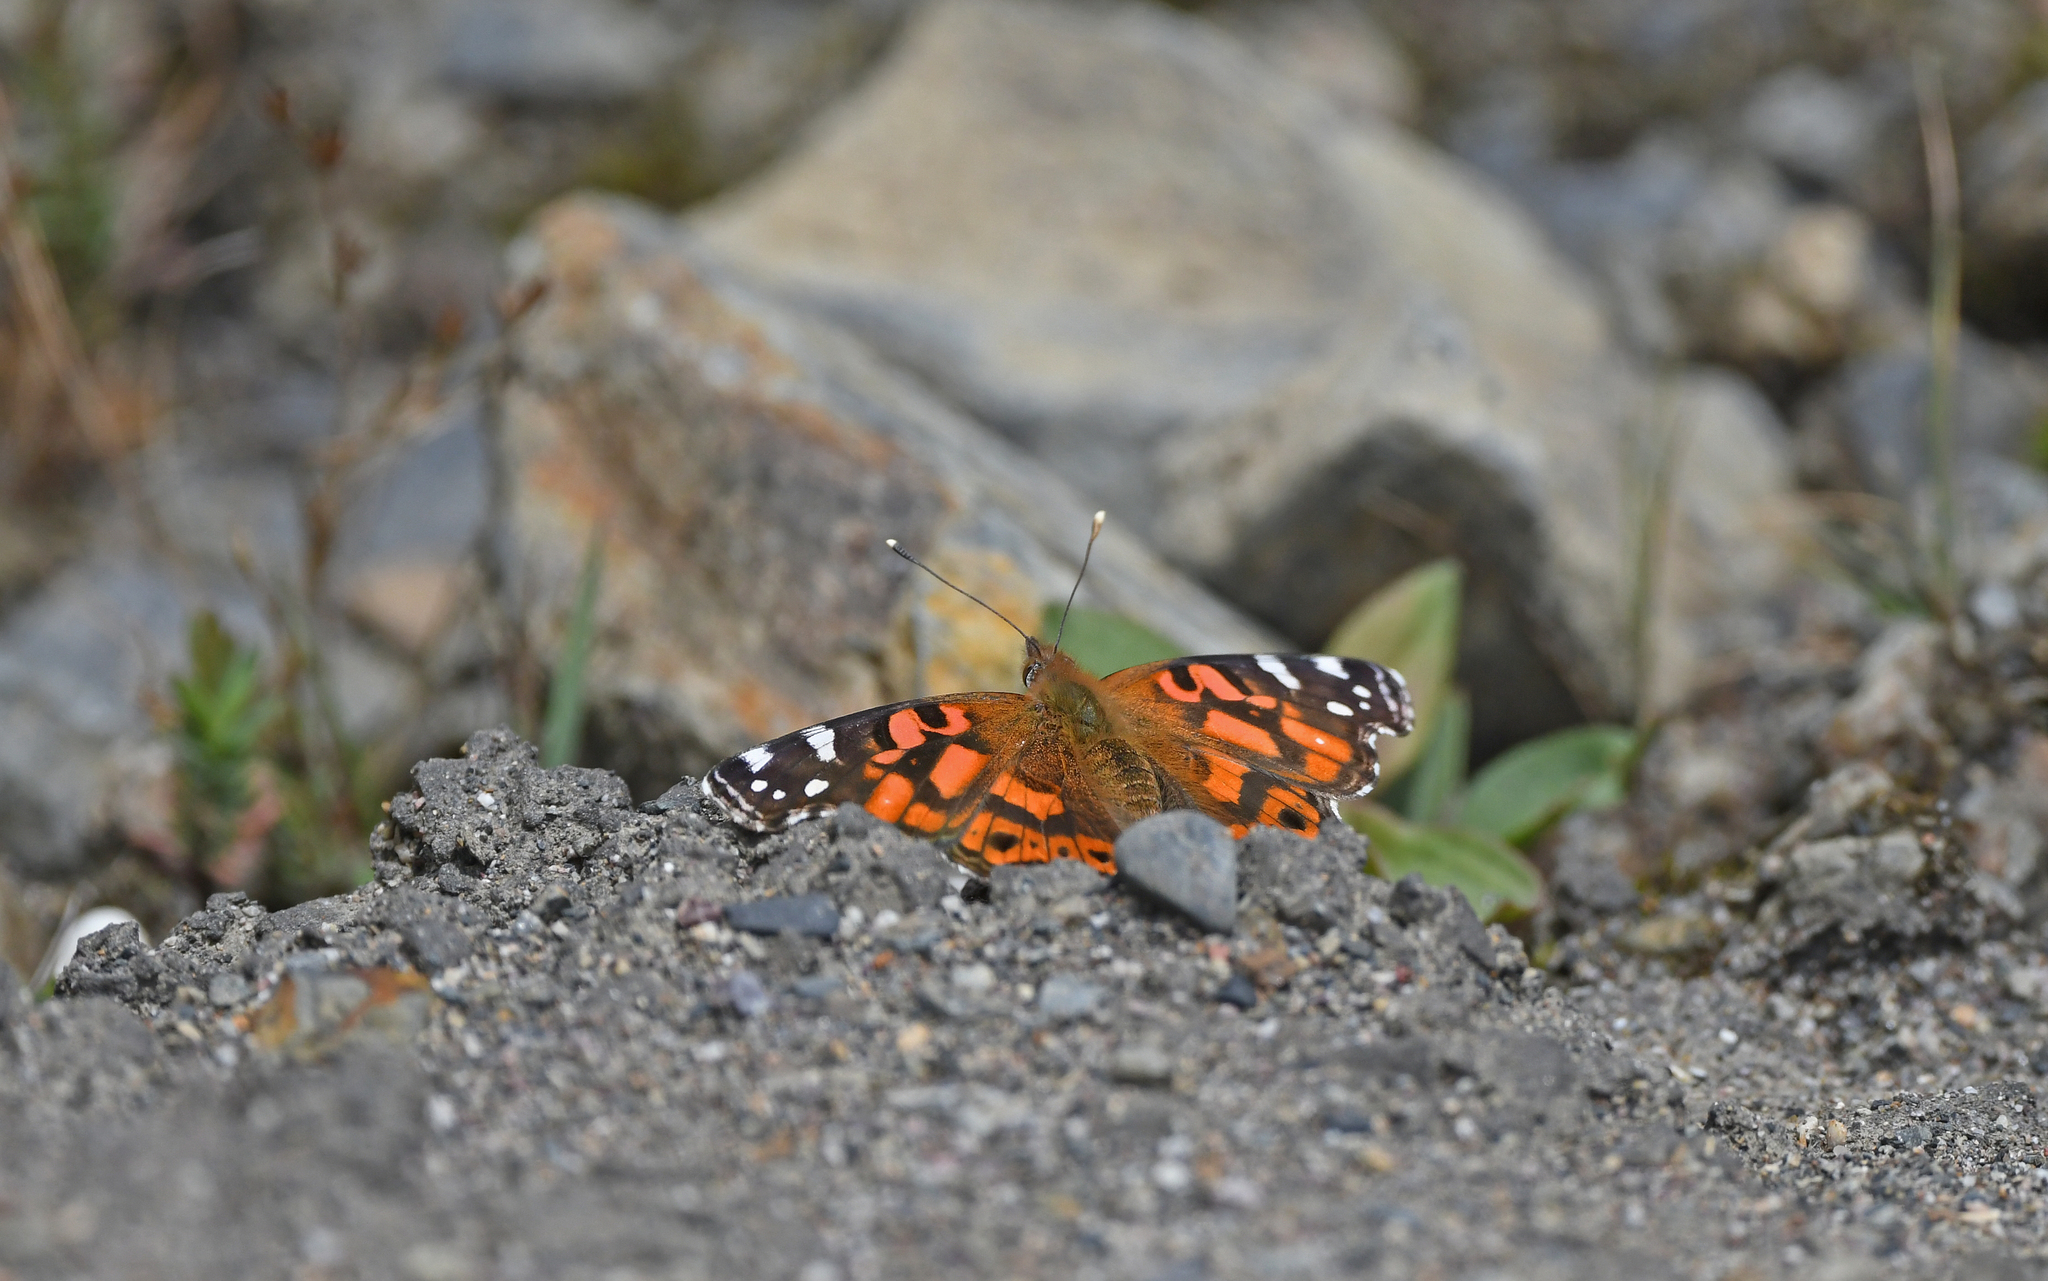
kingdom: Animalia
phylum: Arthropoda
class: Insecta
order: Lepidoptera
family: Nymphalidae
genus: Vanessa
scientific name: Vanessa altissima
